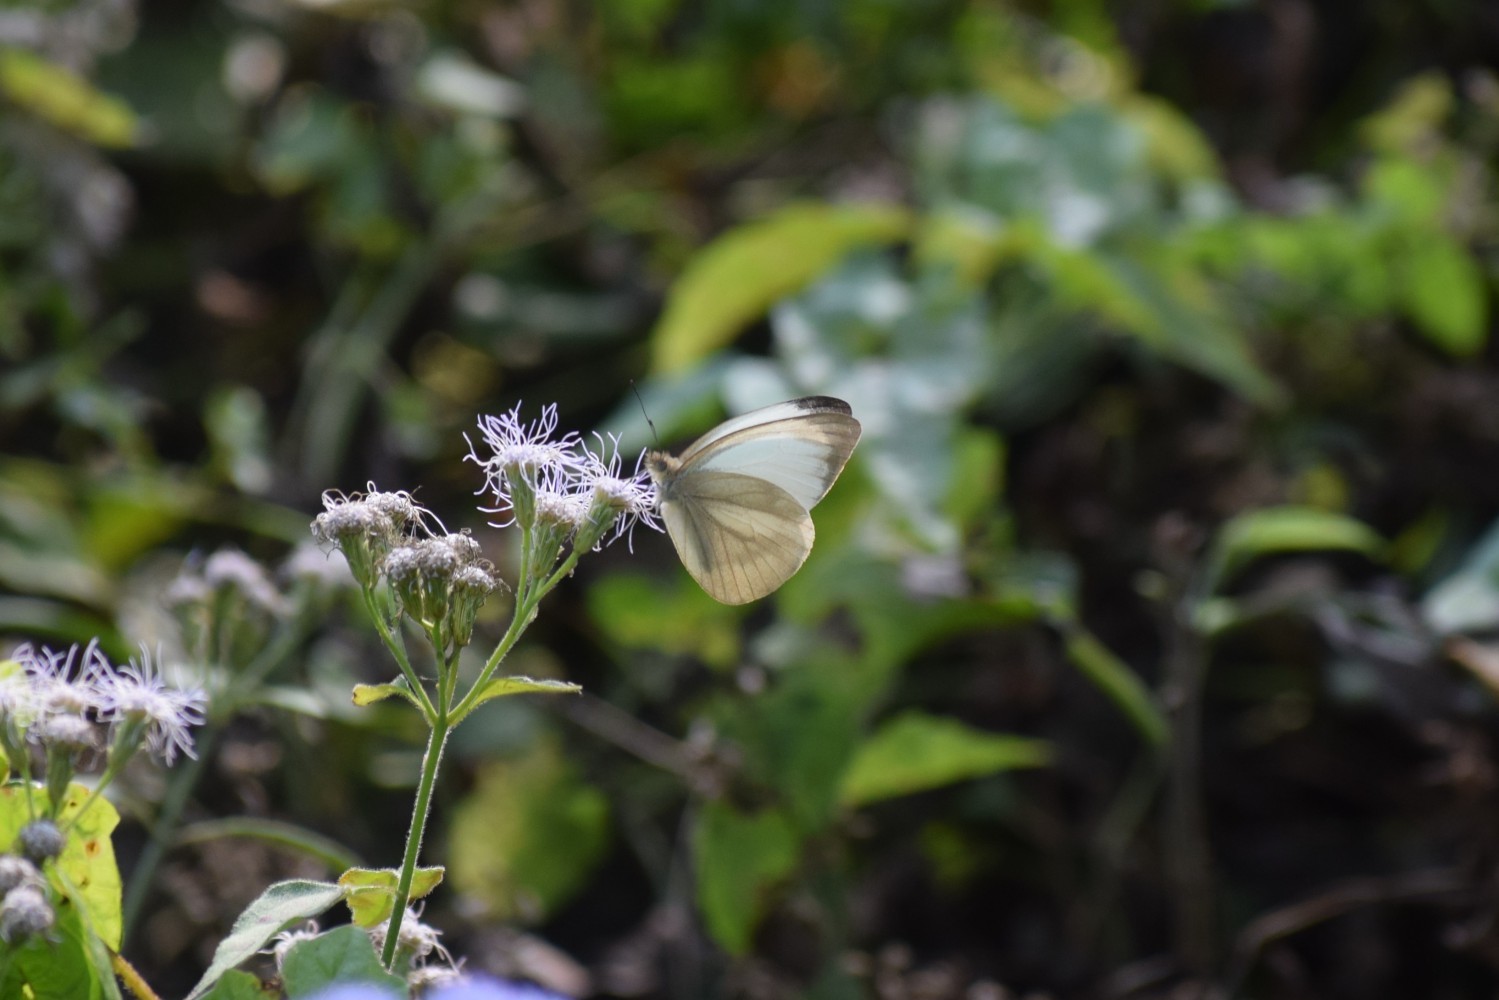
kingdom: Animalia
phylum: Arthropoda
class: Insecta
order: Lepidoptera
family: Pieridae
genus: Cepora
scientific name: Cepora nadina
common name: Lesser gull
